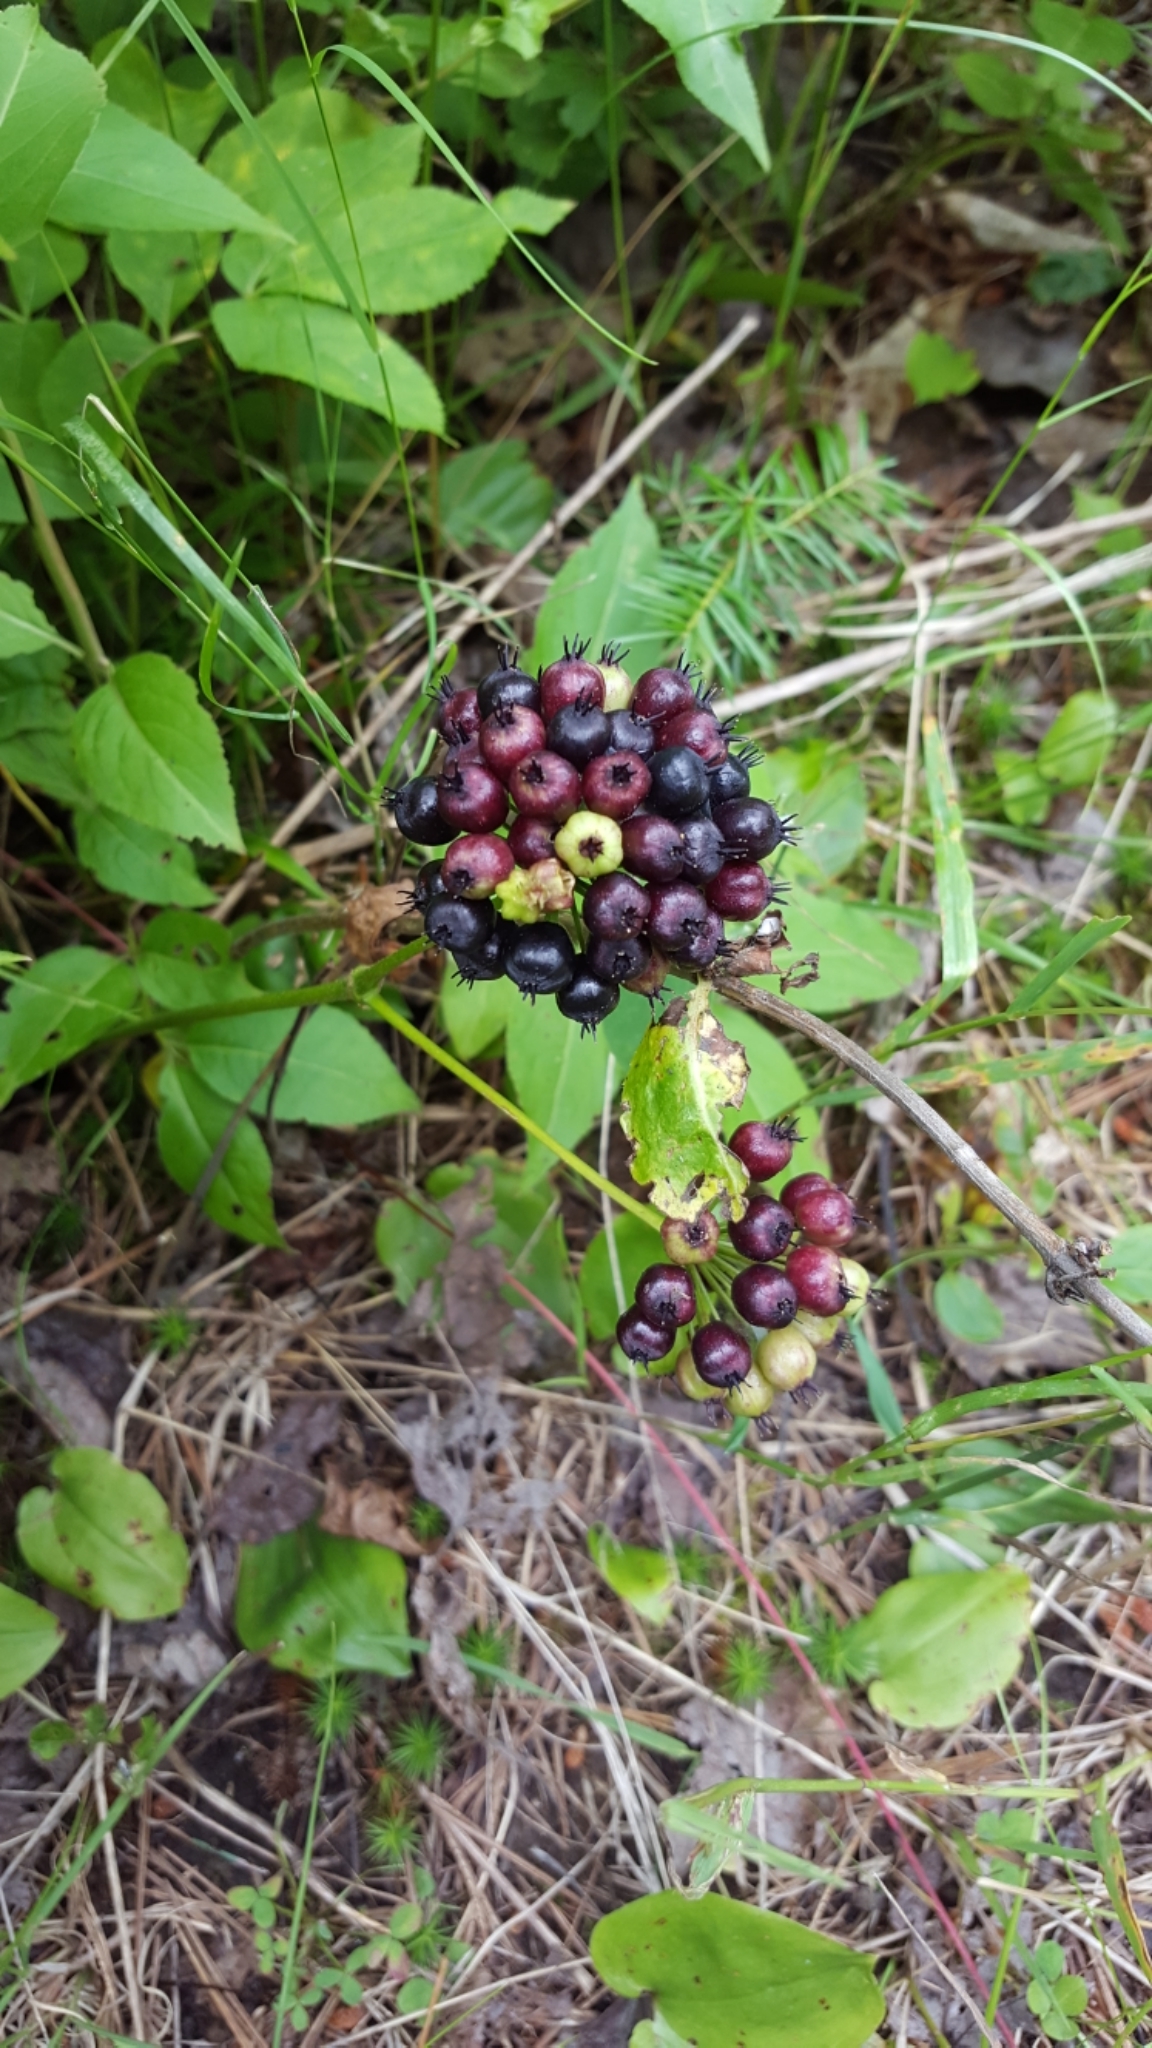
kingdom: Plantae
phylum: Tracheophyta
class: Magnoliopsida
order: Apiales
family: Araliaceae
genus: Aralia
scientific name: Aralia nudicaulis
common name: Wild sarsaparilla
